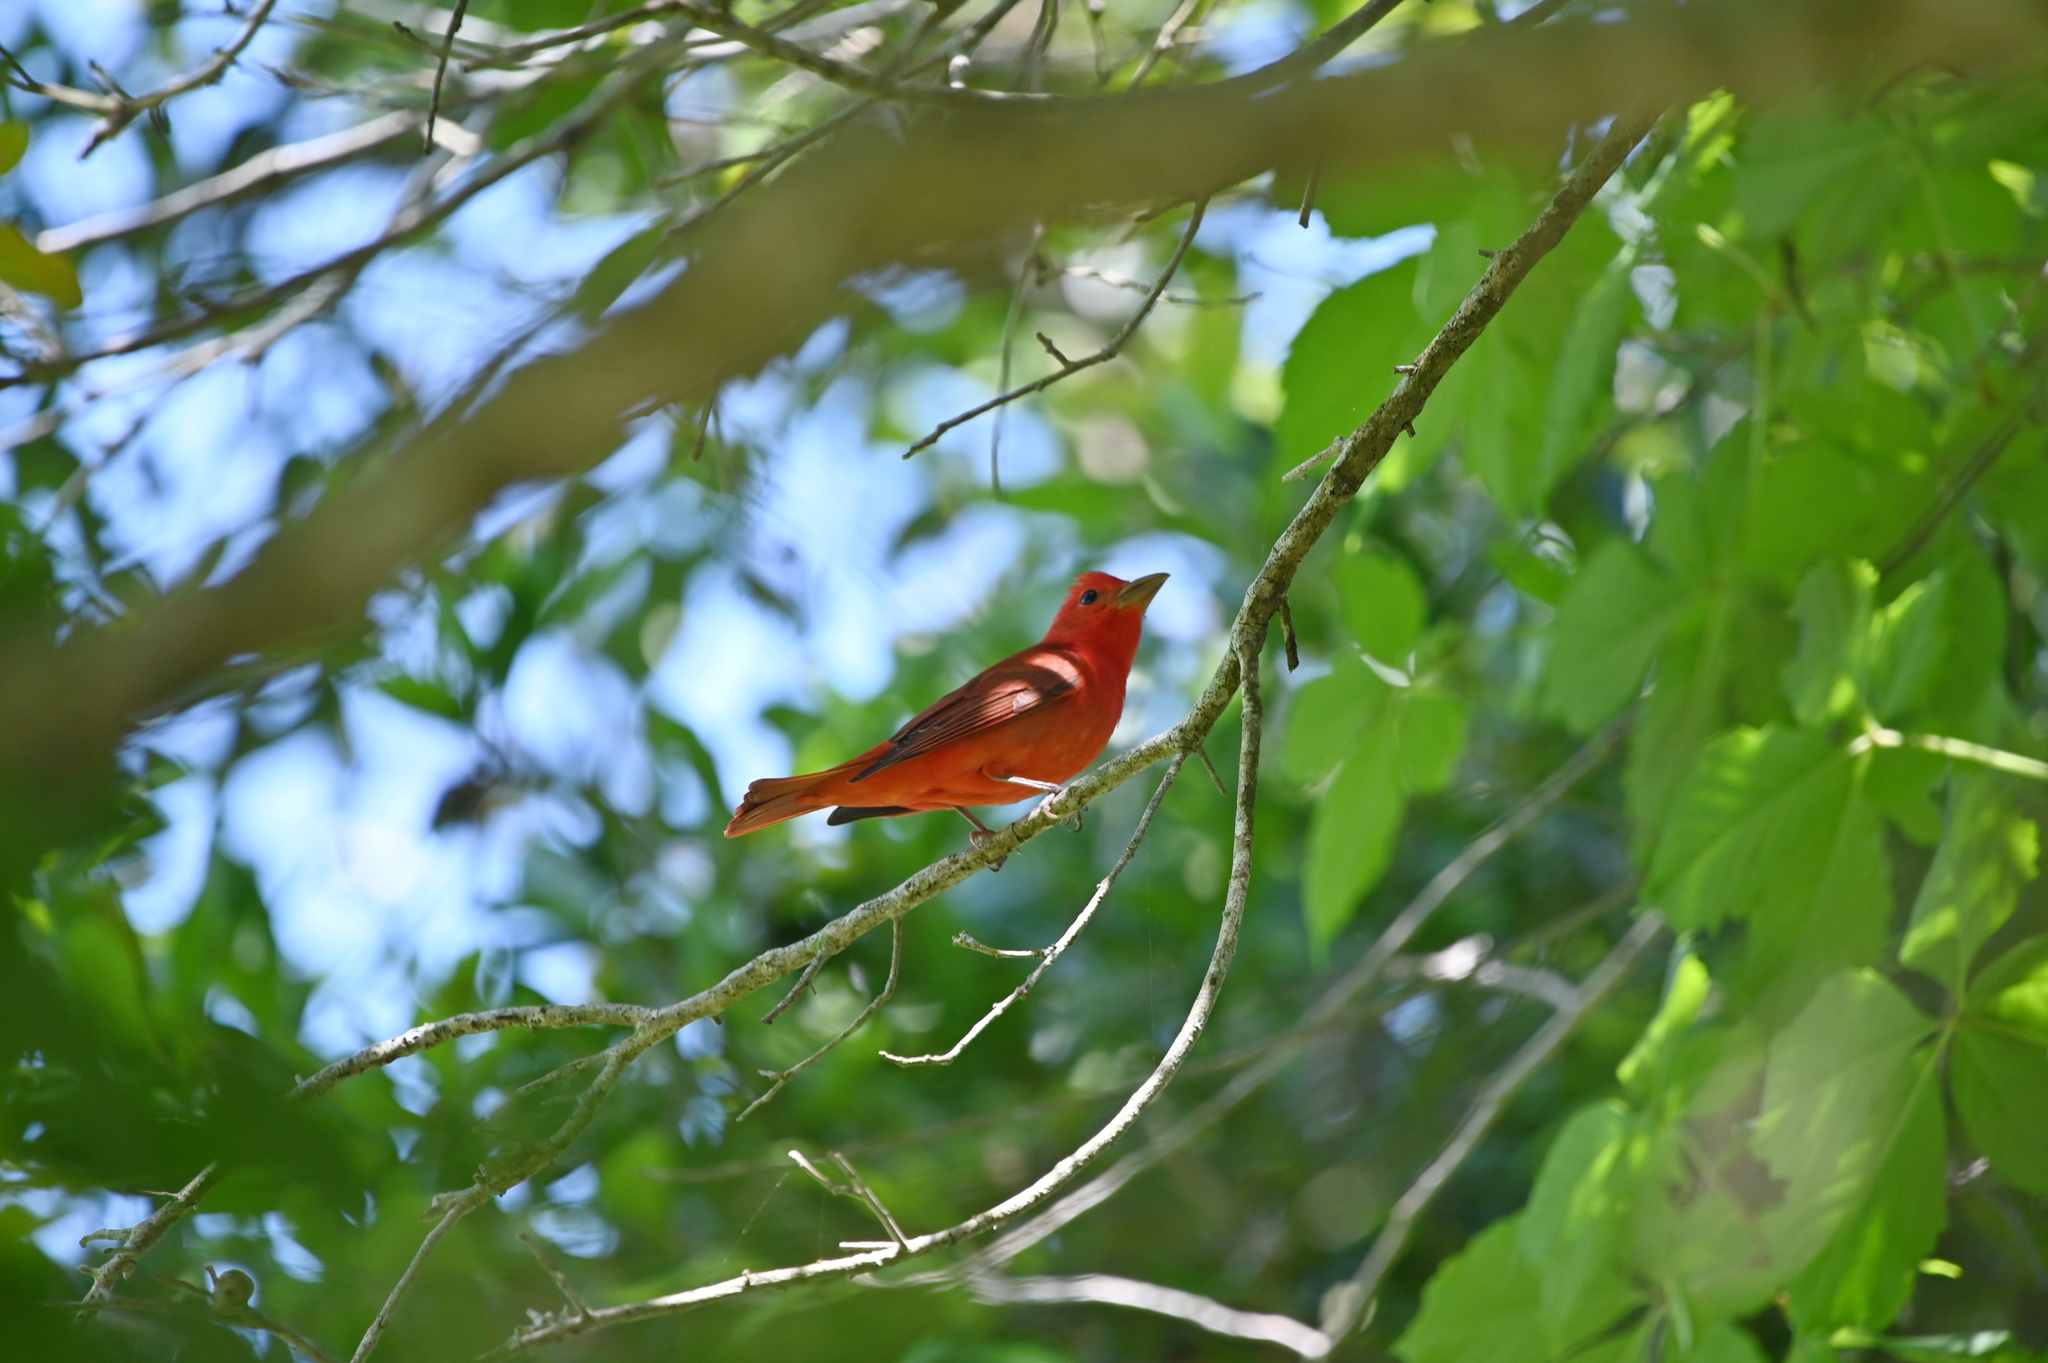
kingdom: Animalia
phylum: Chordata
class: Aves
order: Passeriformes
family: Cardinalidae
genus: Piranga
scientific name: Piranga rubra
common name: Summer tanager
